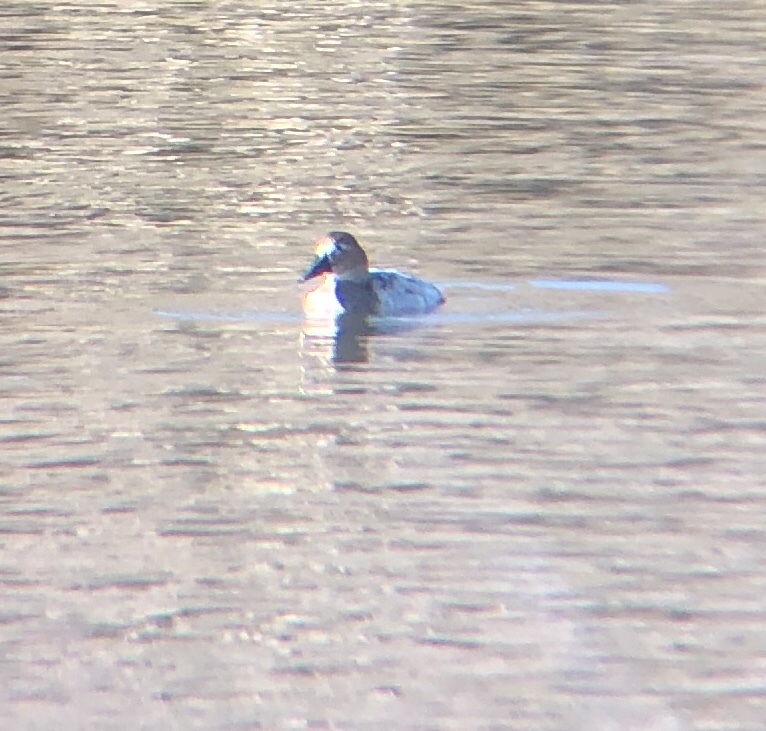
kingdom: Animalia
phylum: Chordata
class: Aves
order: Anseriformes
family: Anatidae
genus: Aythya
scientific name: Aythya valisineria
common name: Canvasback
